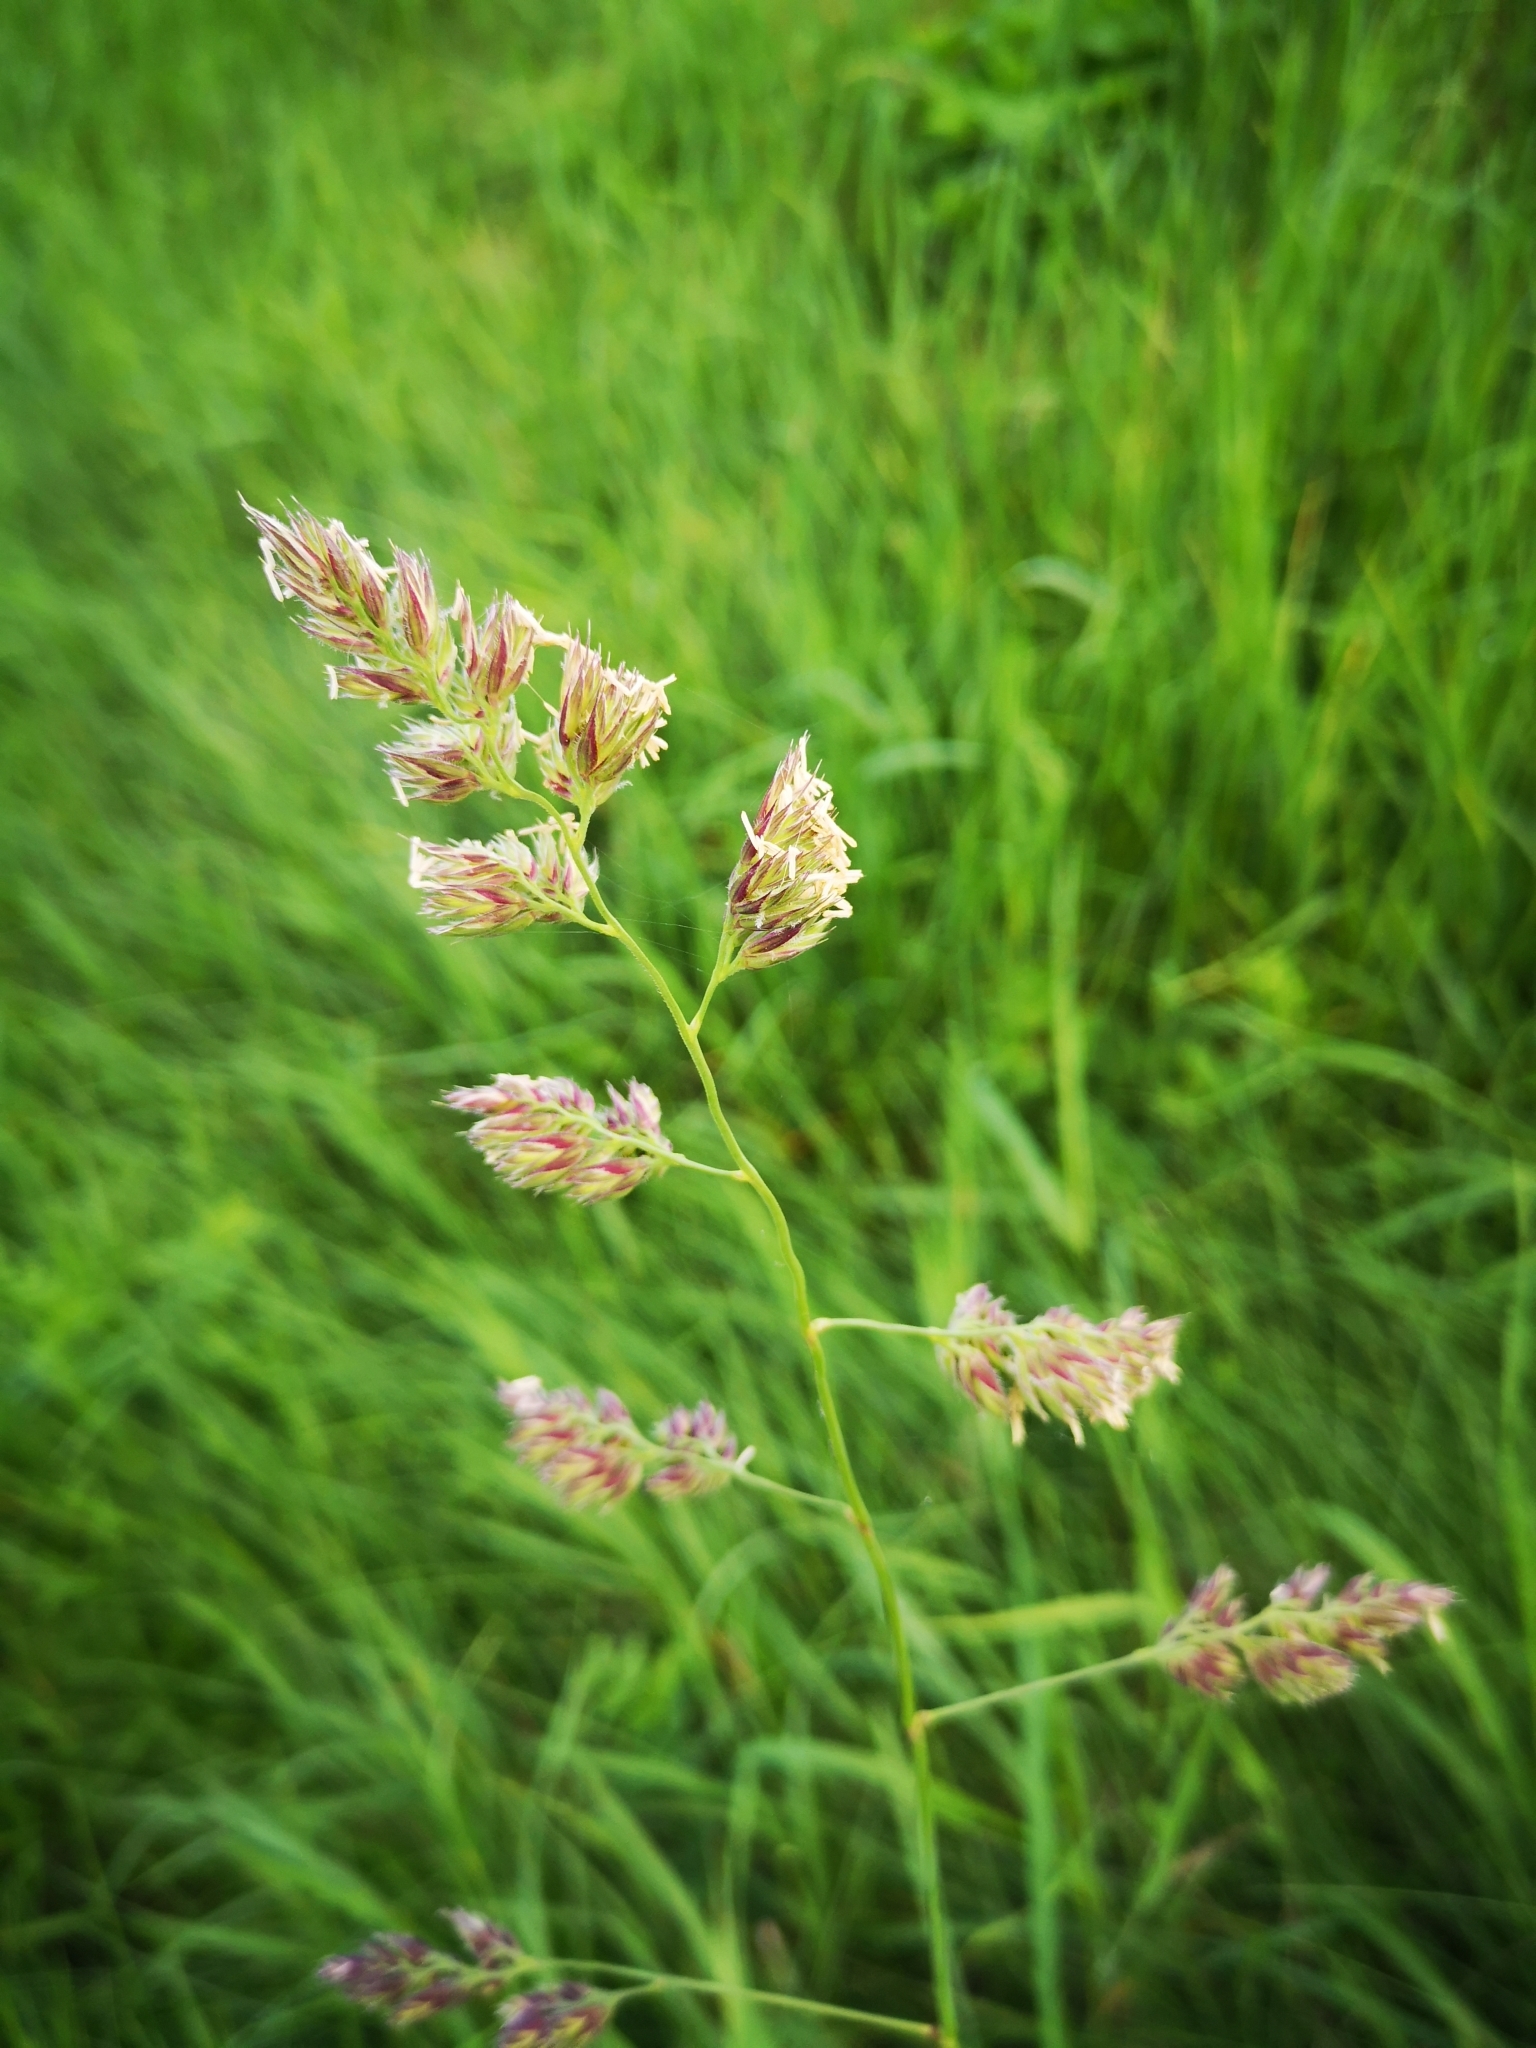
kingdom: Plantae
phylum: Tracheophyta
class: Liliopsida
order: Poales
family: Poaceae
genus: Dactylis
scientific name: Dactylis glomerata
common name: Orchardgrass
